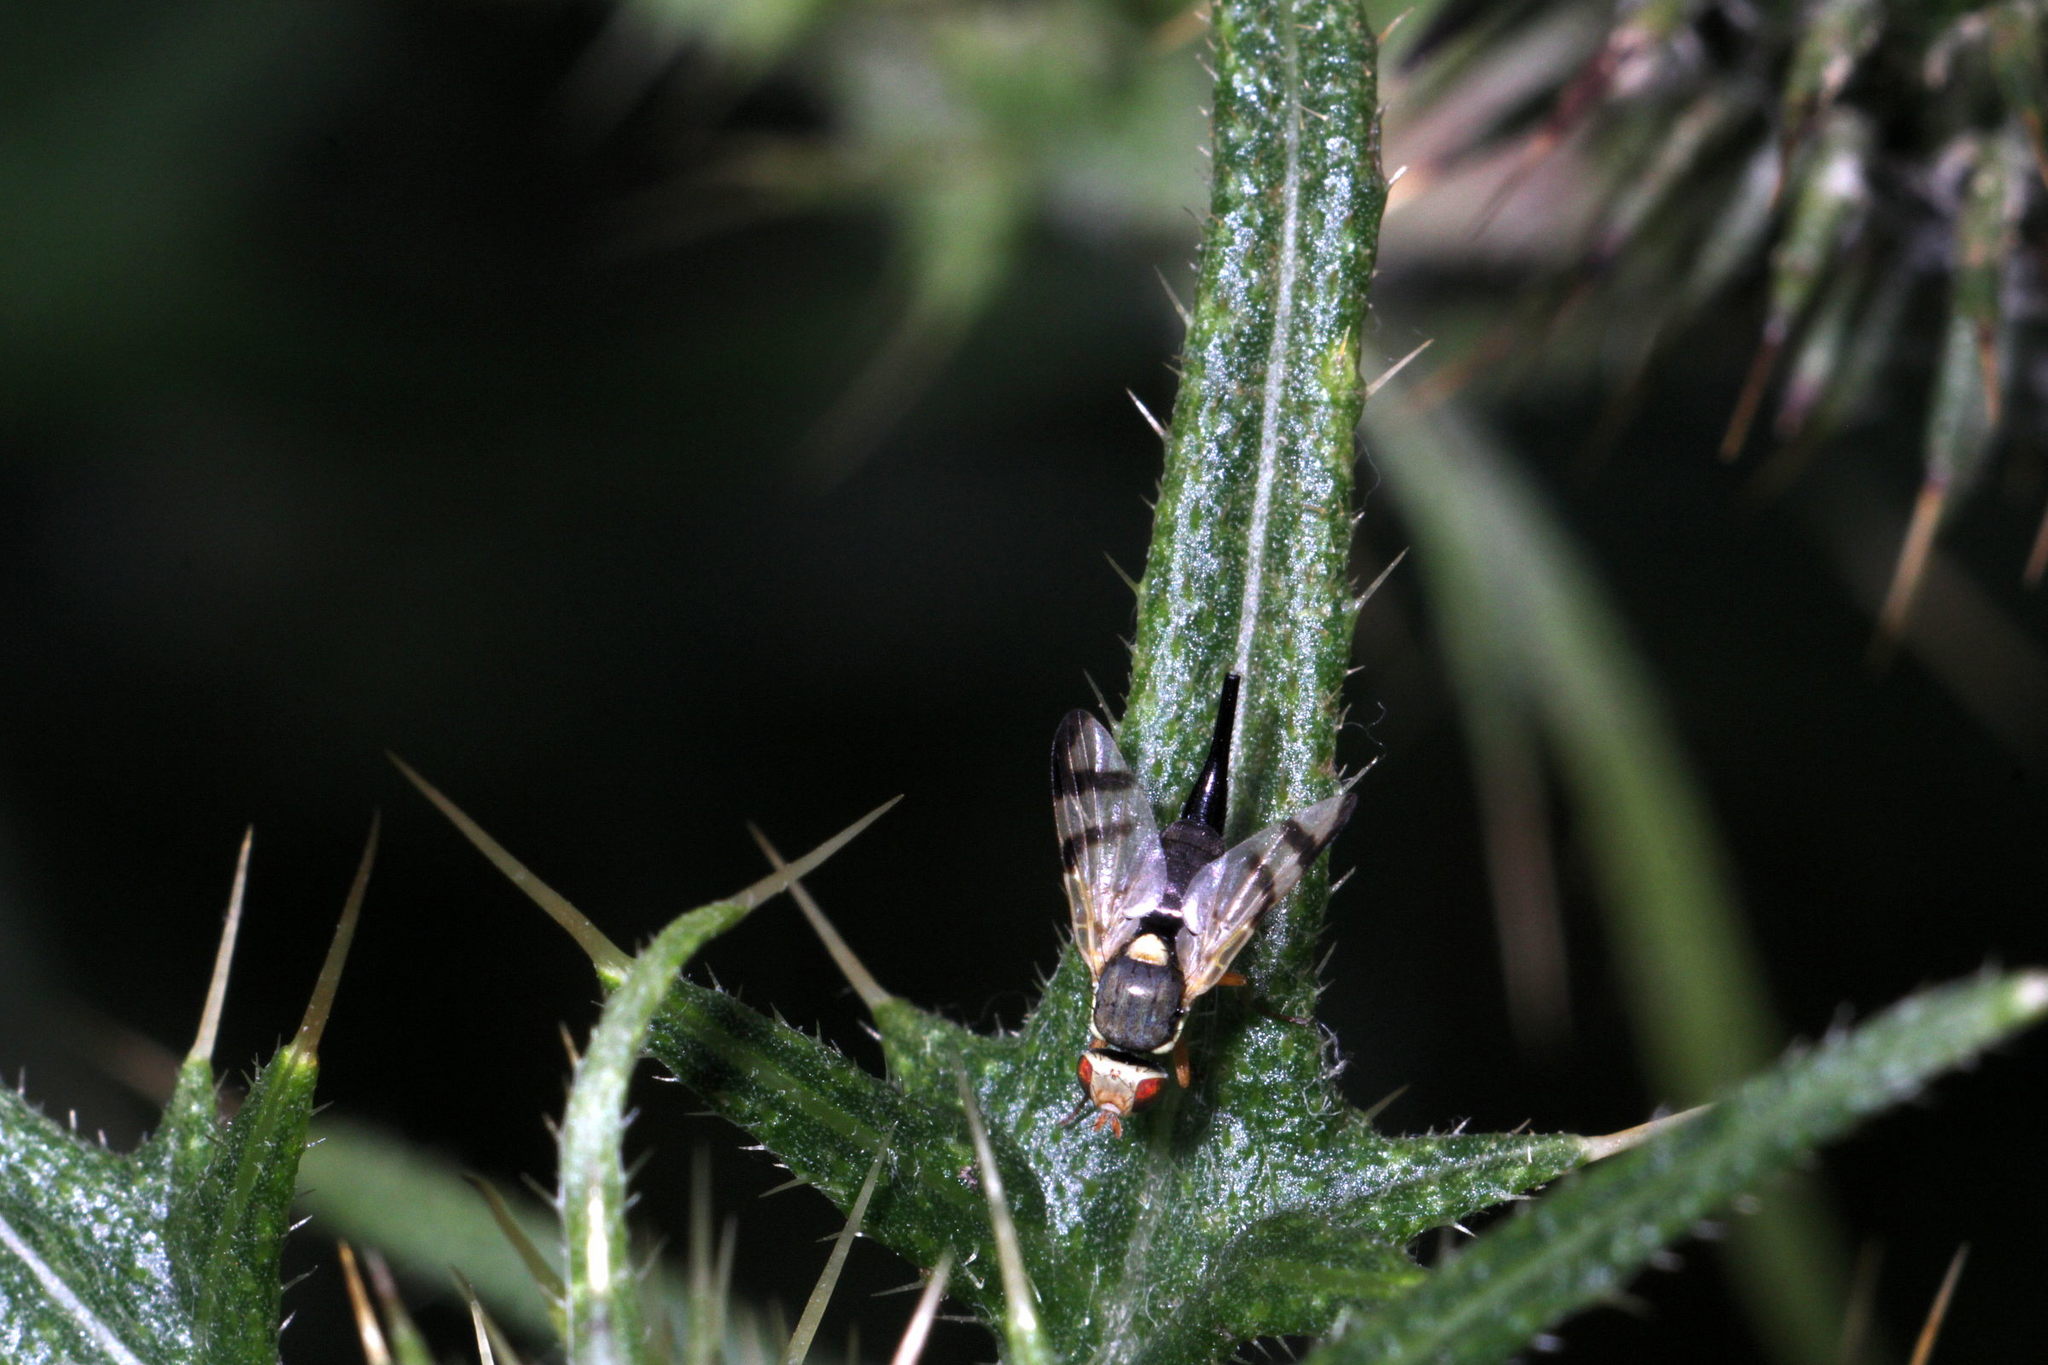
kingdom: Animalia
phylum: Arthropoda
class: Insecta
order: Diptera
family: Tephritidae
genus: Urophora
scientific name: Urophora stylata
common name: Fruit fly
